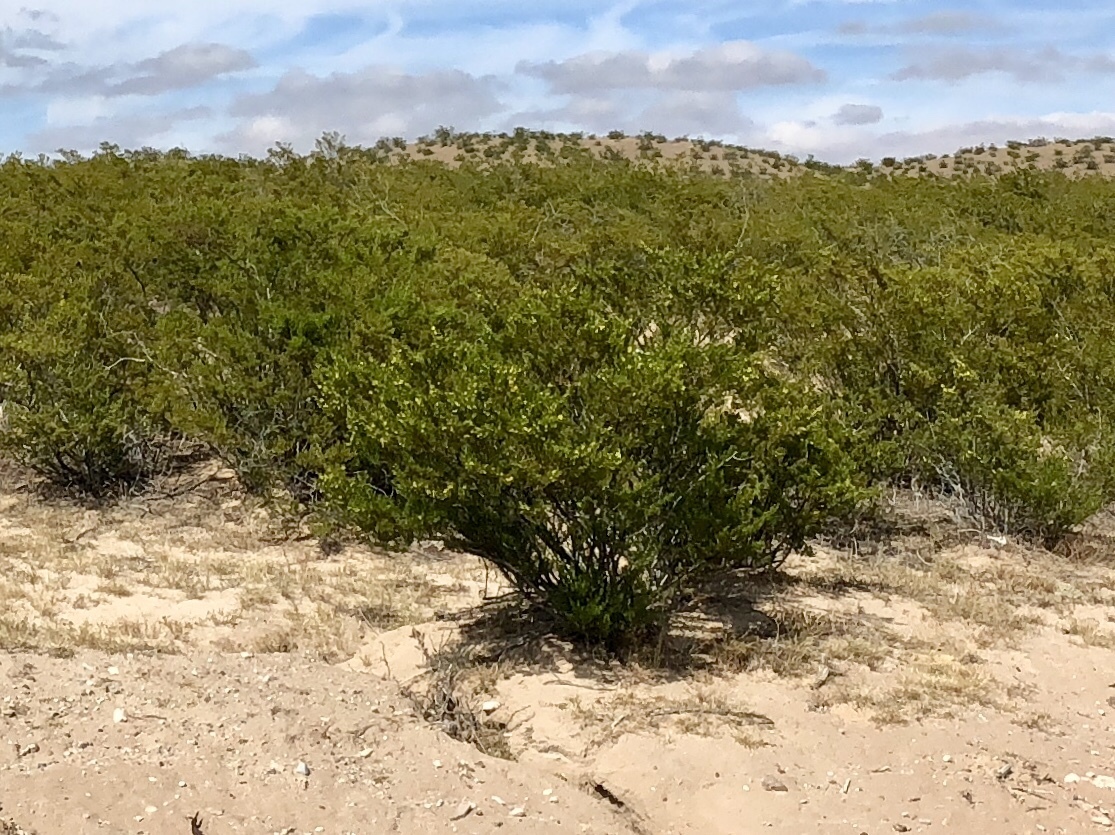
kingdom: Plantae
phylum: Tracheophyta
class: Magnoliopsida
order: Zygophyllales
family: Zygophyllaceae
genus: Larrea
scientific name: Larrea tridentata
